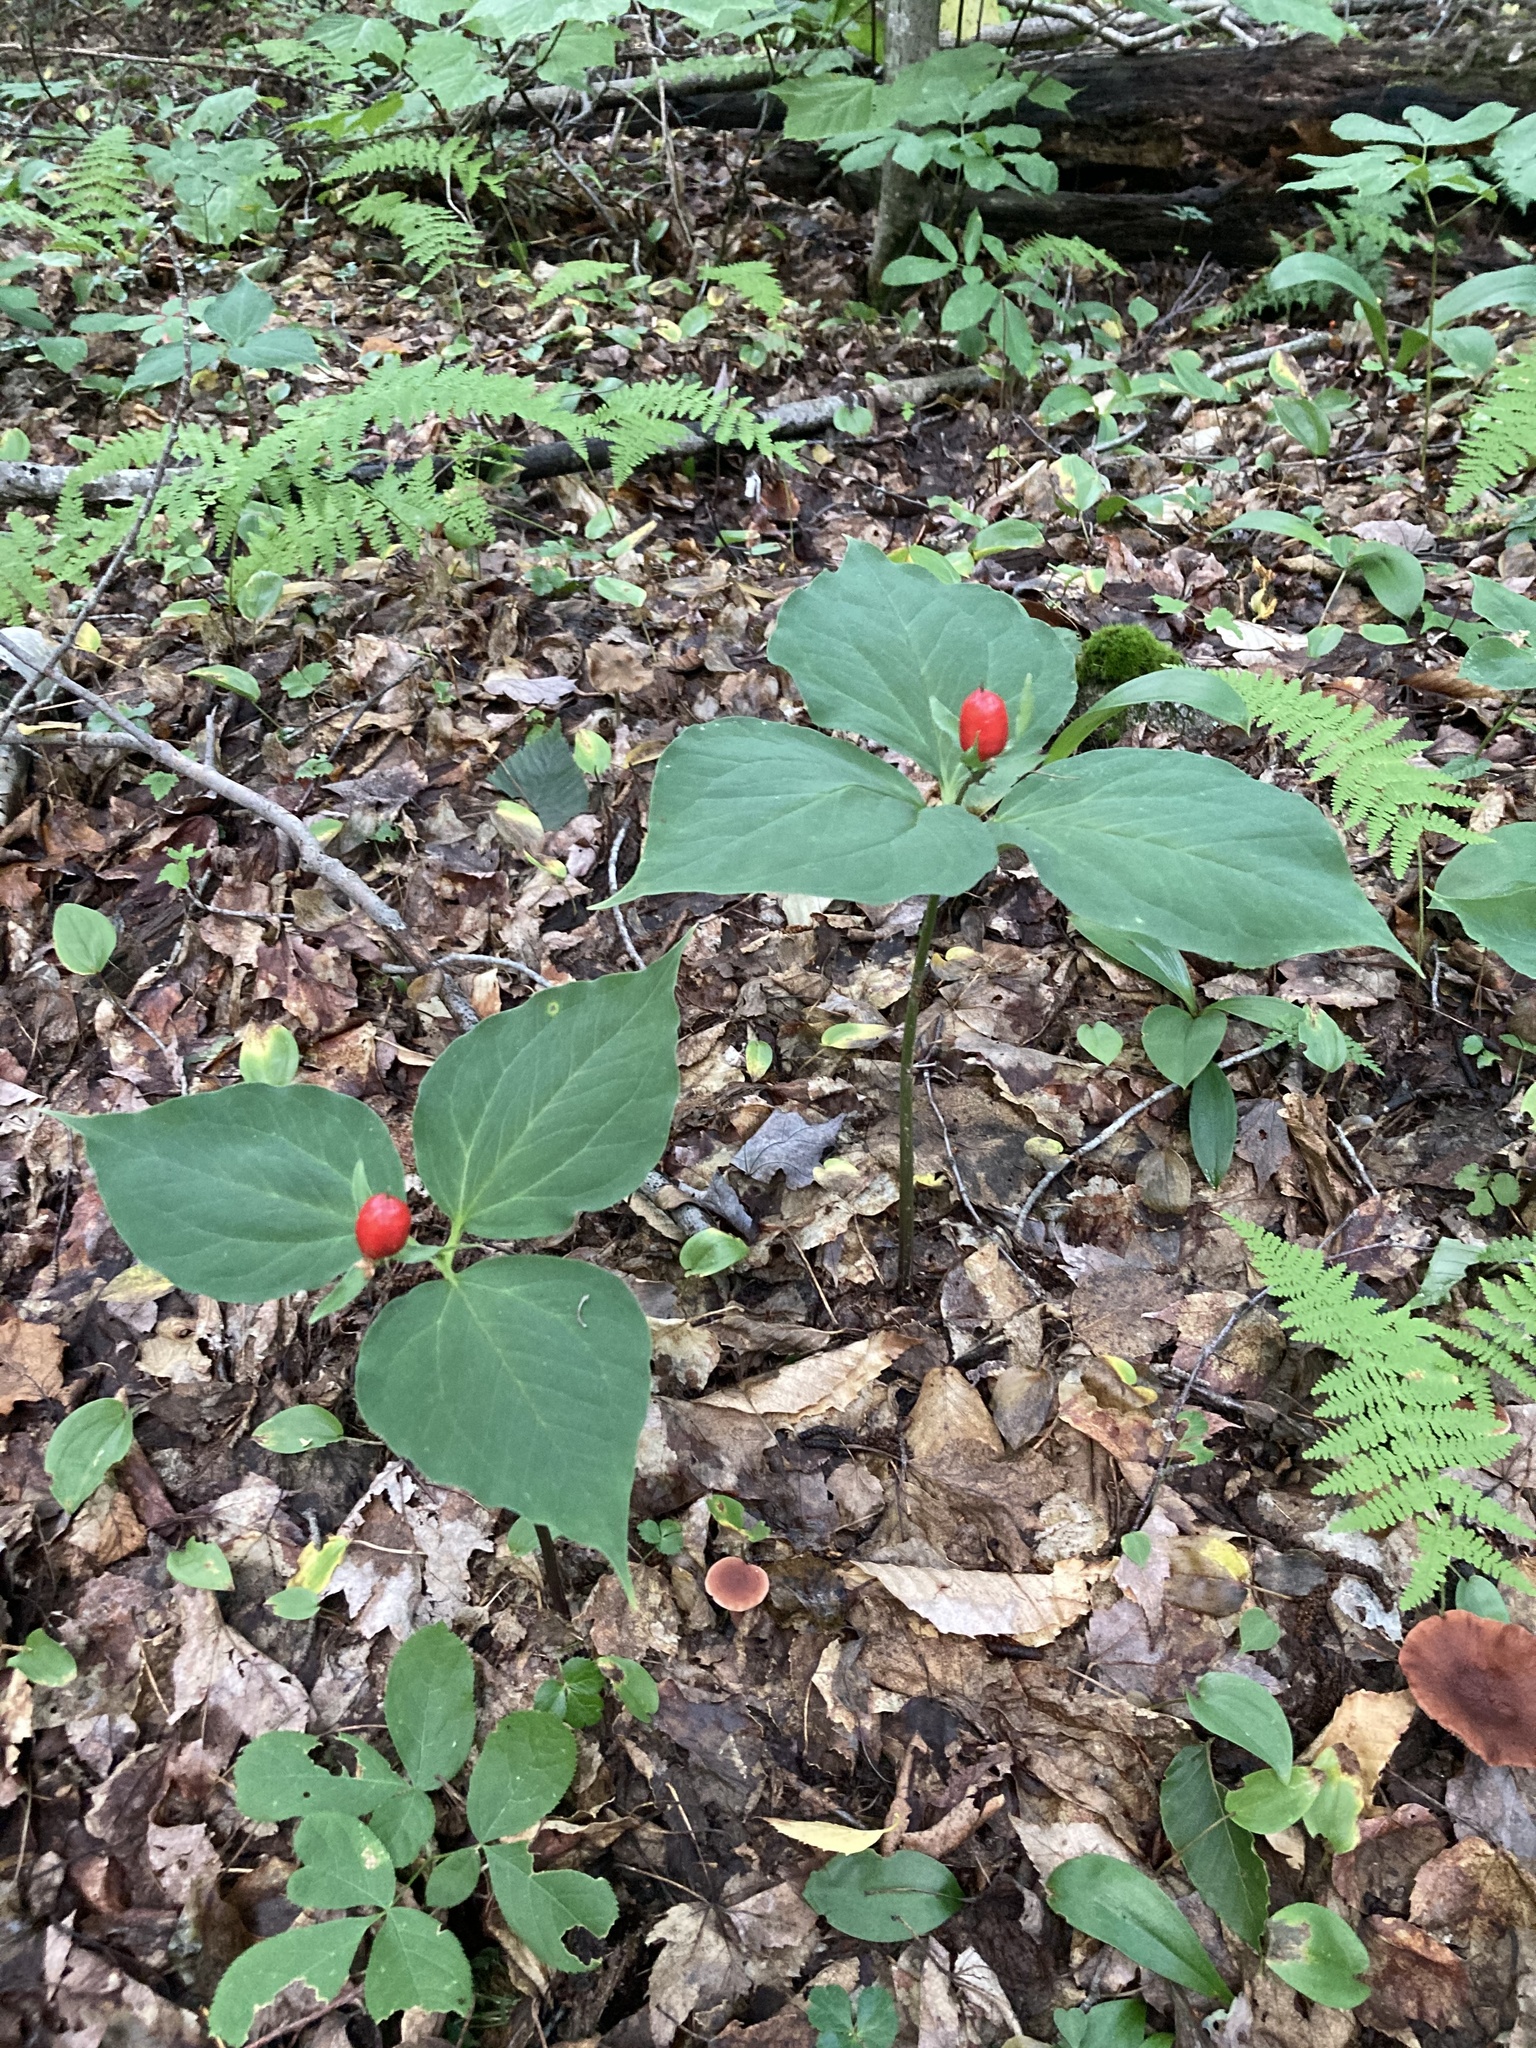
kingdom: Plantae
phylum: Tracheophyta
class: Liliopsida
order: Liliales
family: Melanthiaceae
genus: Trillium
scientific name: Trillium undulatum
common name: Paint trillium
